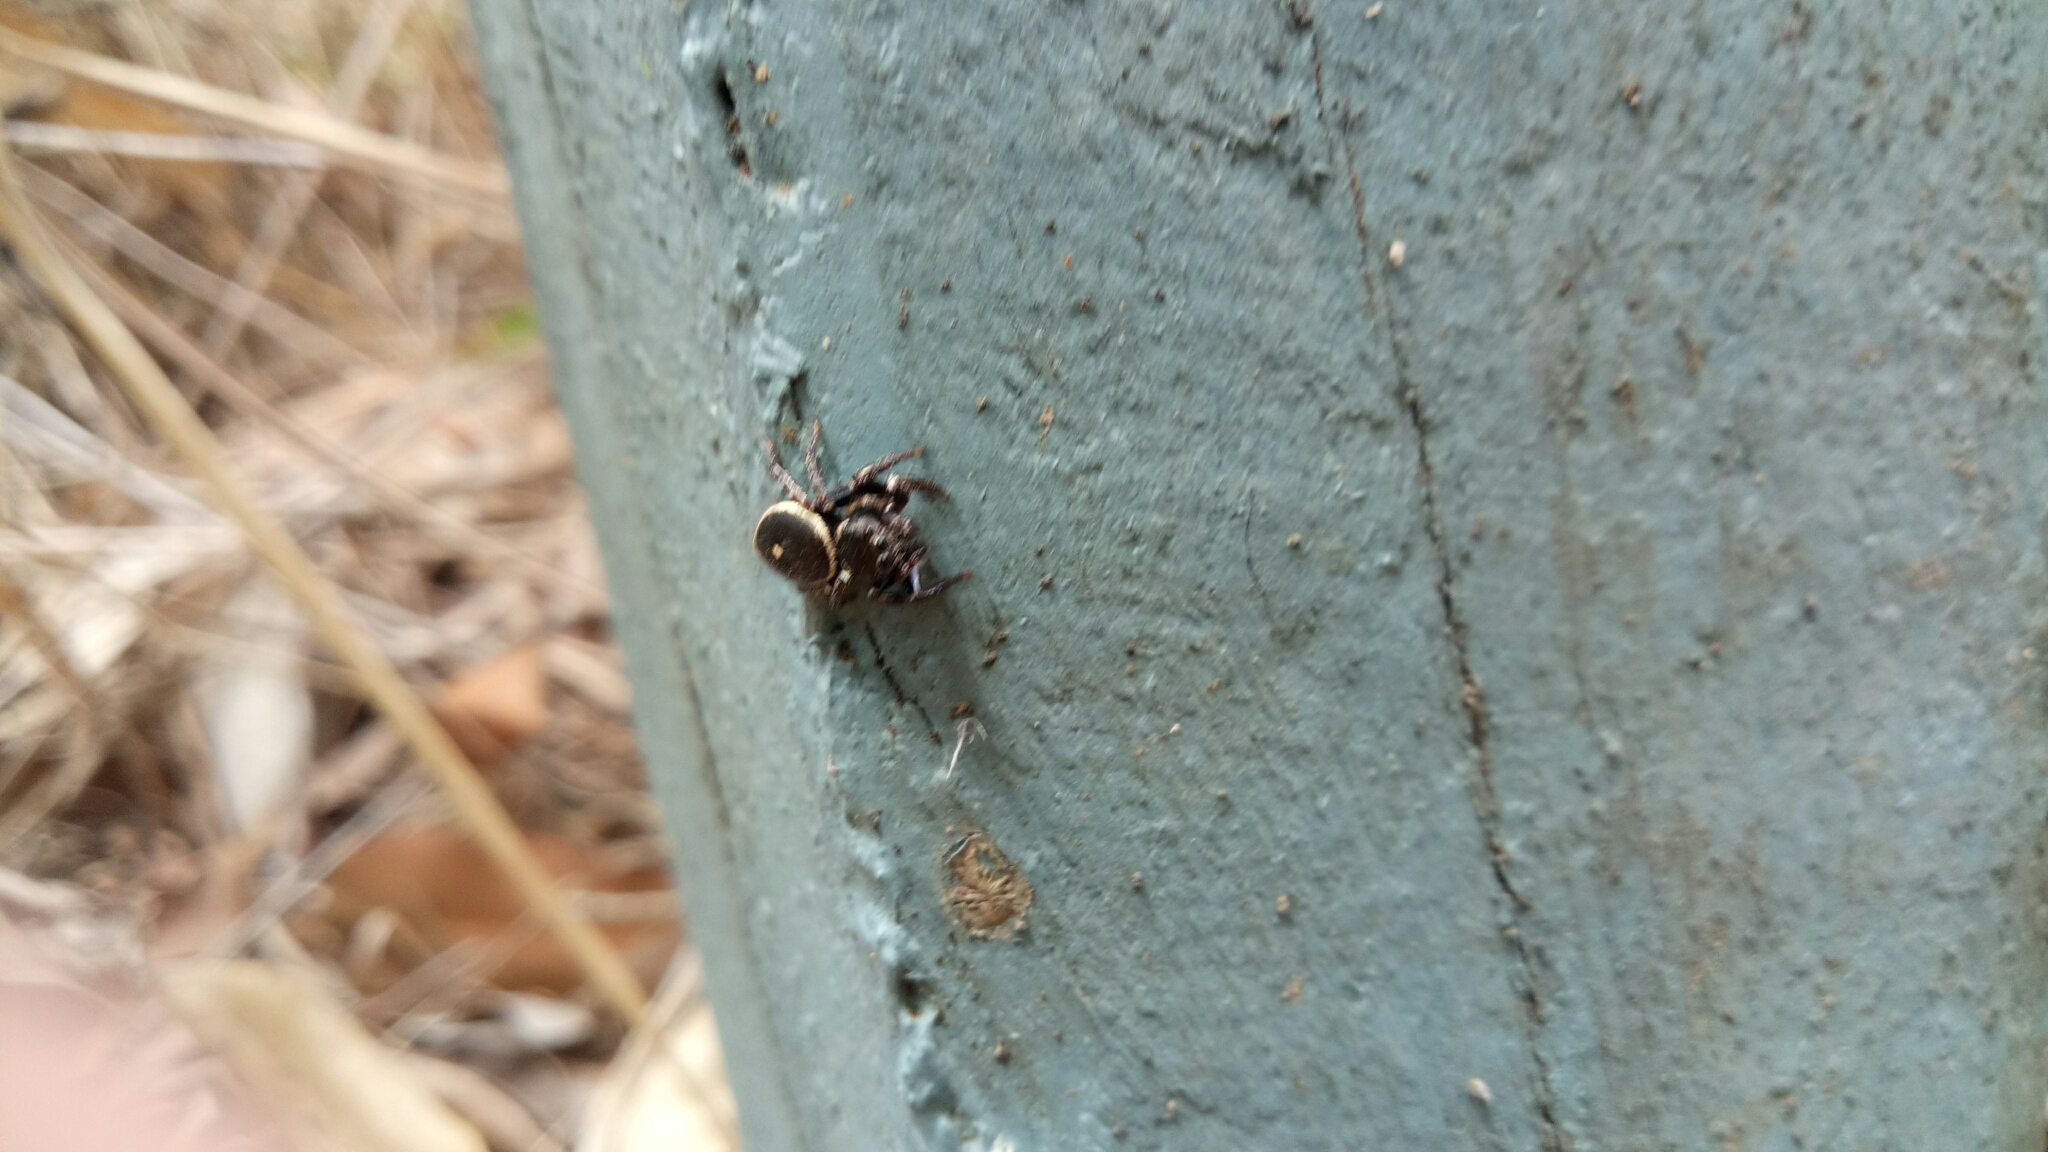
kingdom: Animalia
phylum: Arthropoda
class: Arachnida
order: Araneae
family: Salticidae
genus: Zenodorus
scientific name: Zenodorus orbiculatus
